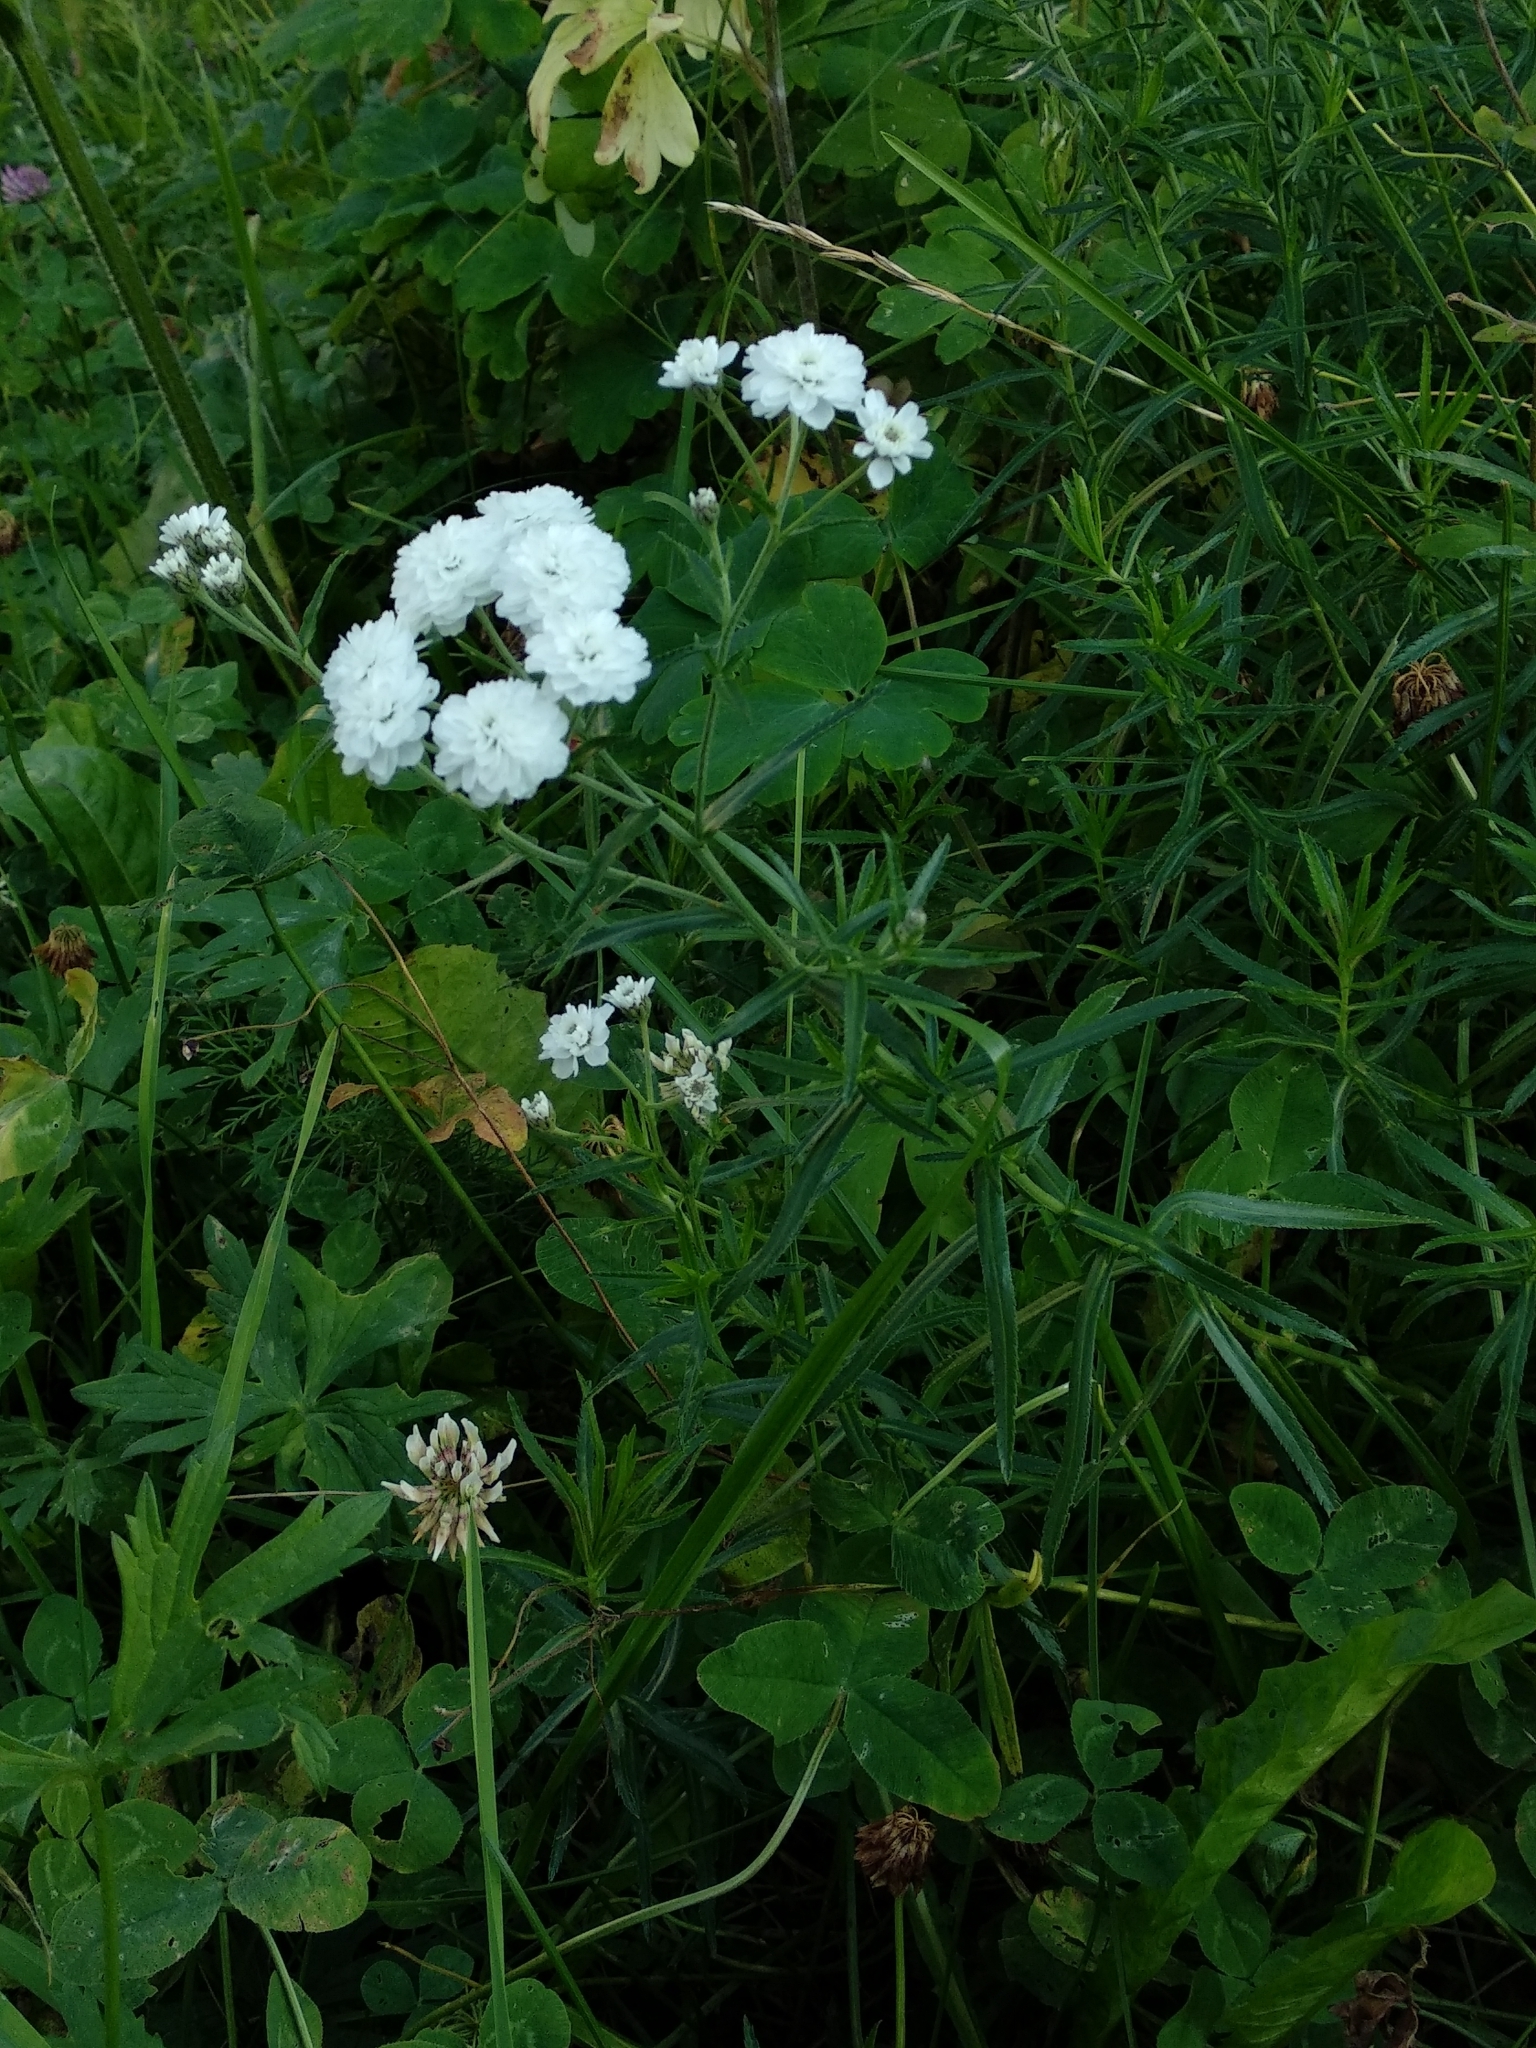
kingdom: Plantae
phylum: Tracheophyta
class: Magnoliopsida
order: Asterales
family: Asteraceae
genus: Achillea
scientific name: Achillea ptarmica
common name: Sneezeweed
